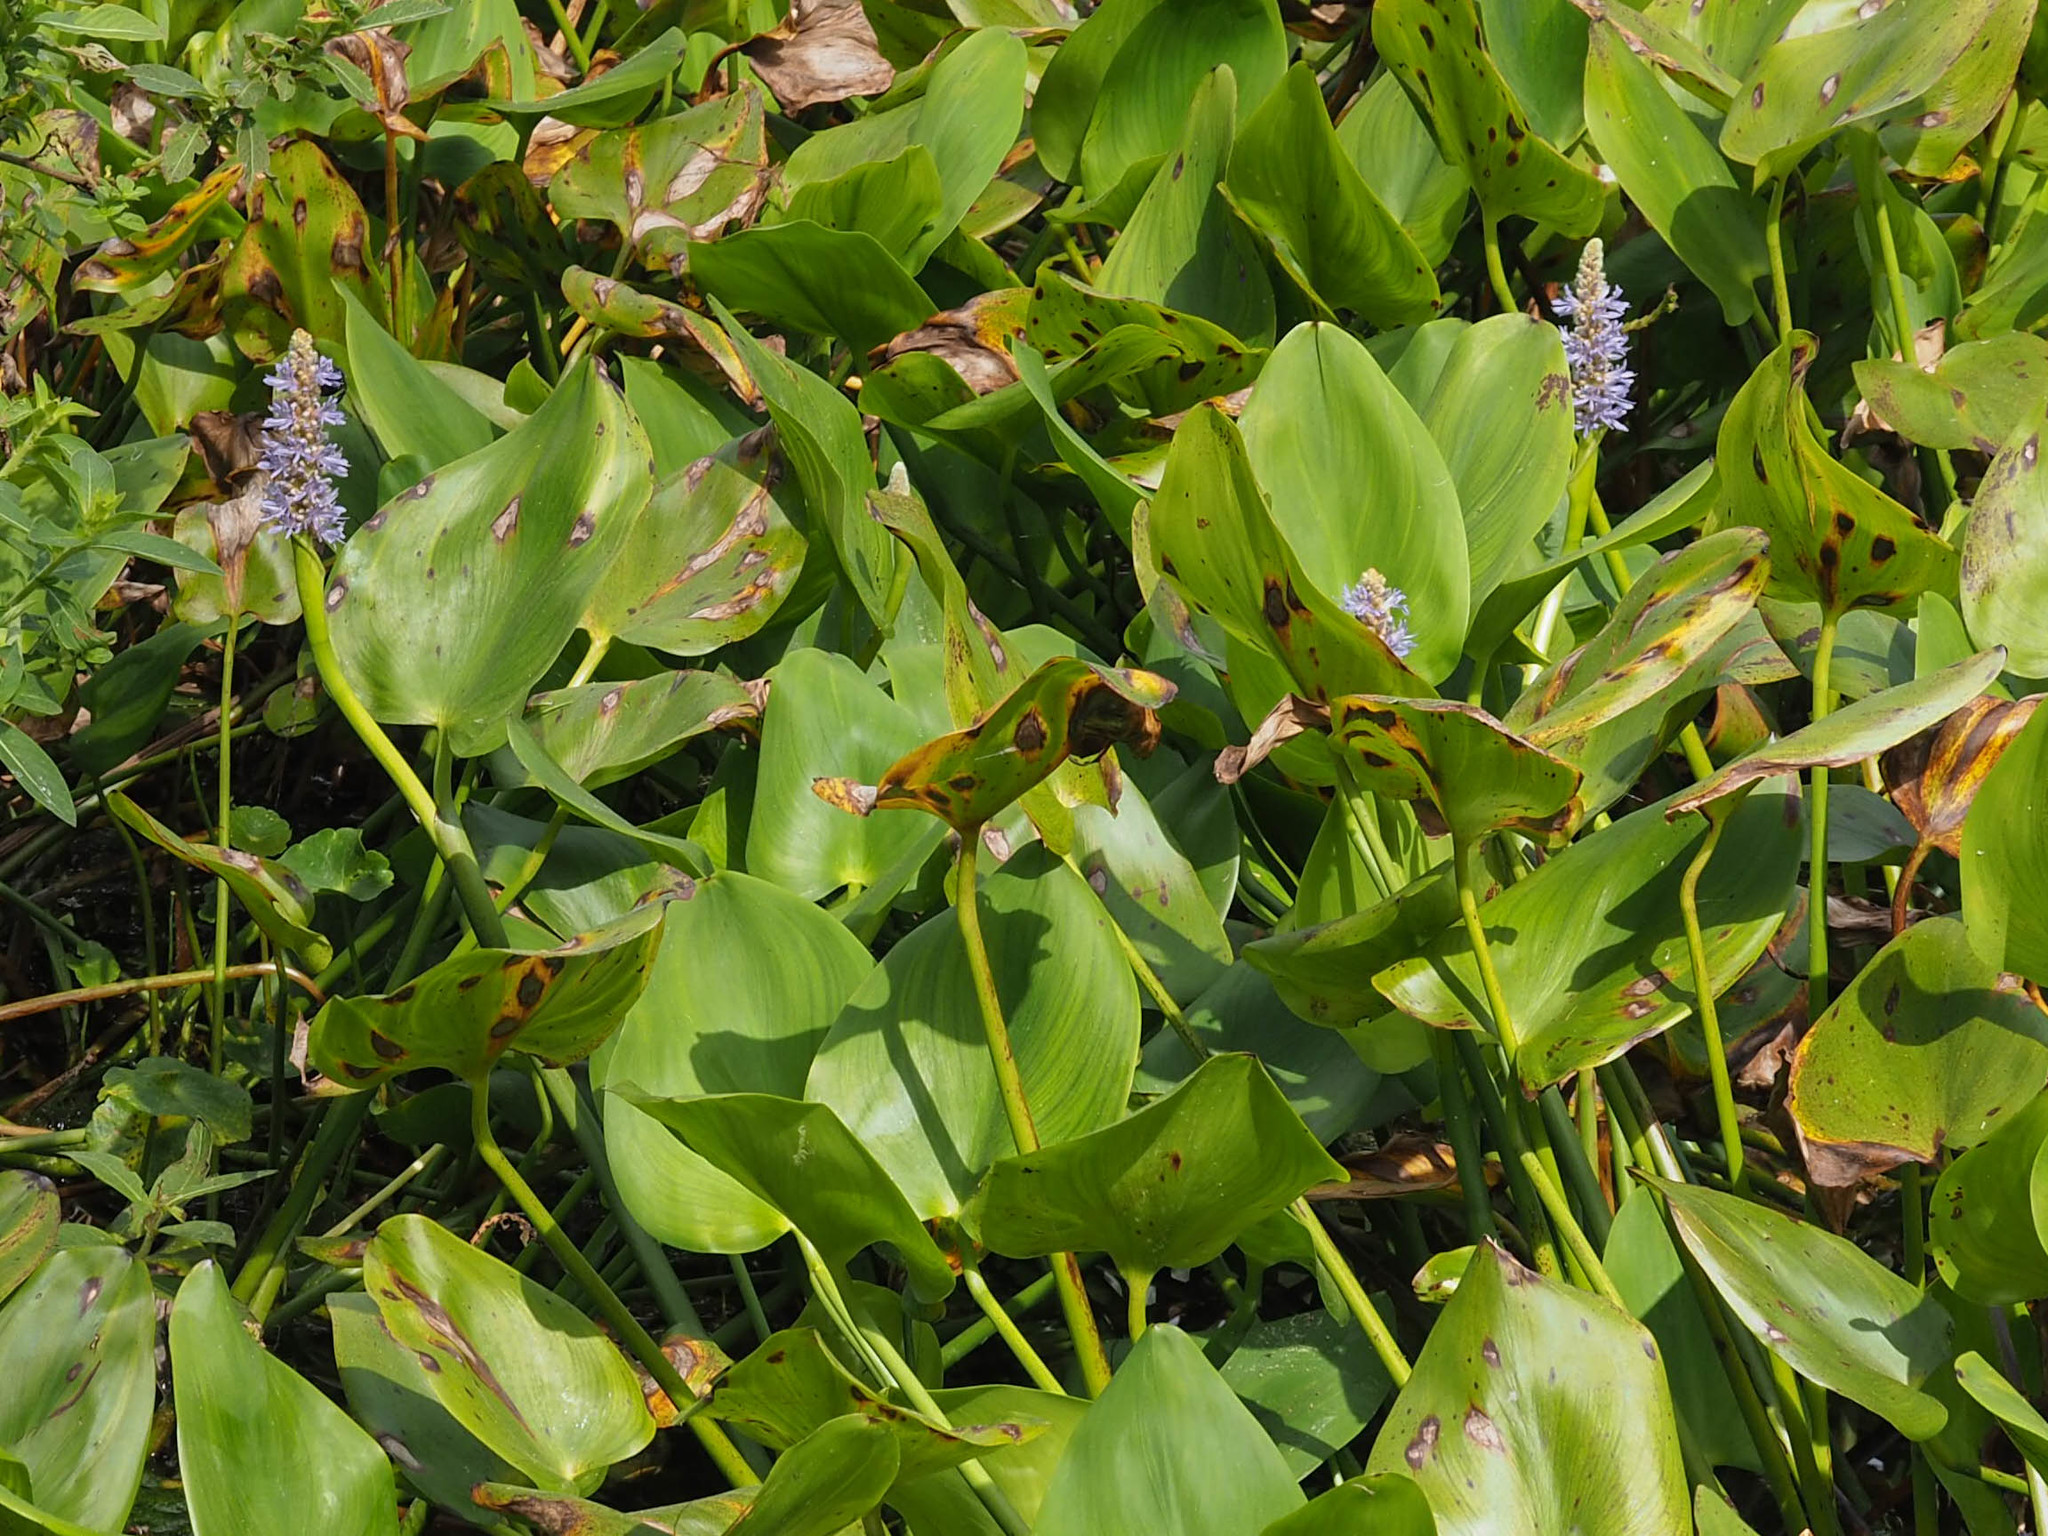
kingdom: Plantae
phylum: Tracheophyta
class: Liliopsida
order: Commelinales
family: Pontederiaceae
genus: Pontederia
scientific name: Pontederia cordata
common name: Pickerelweed
